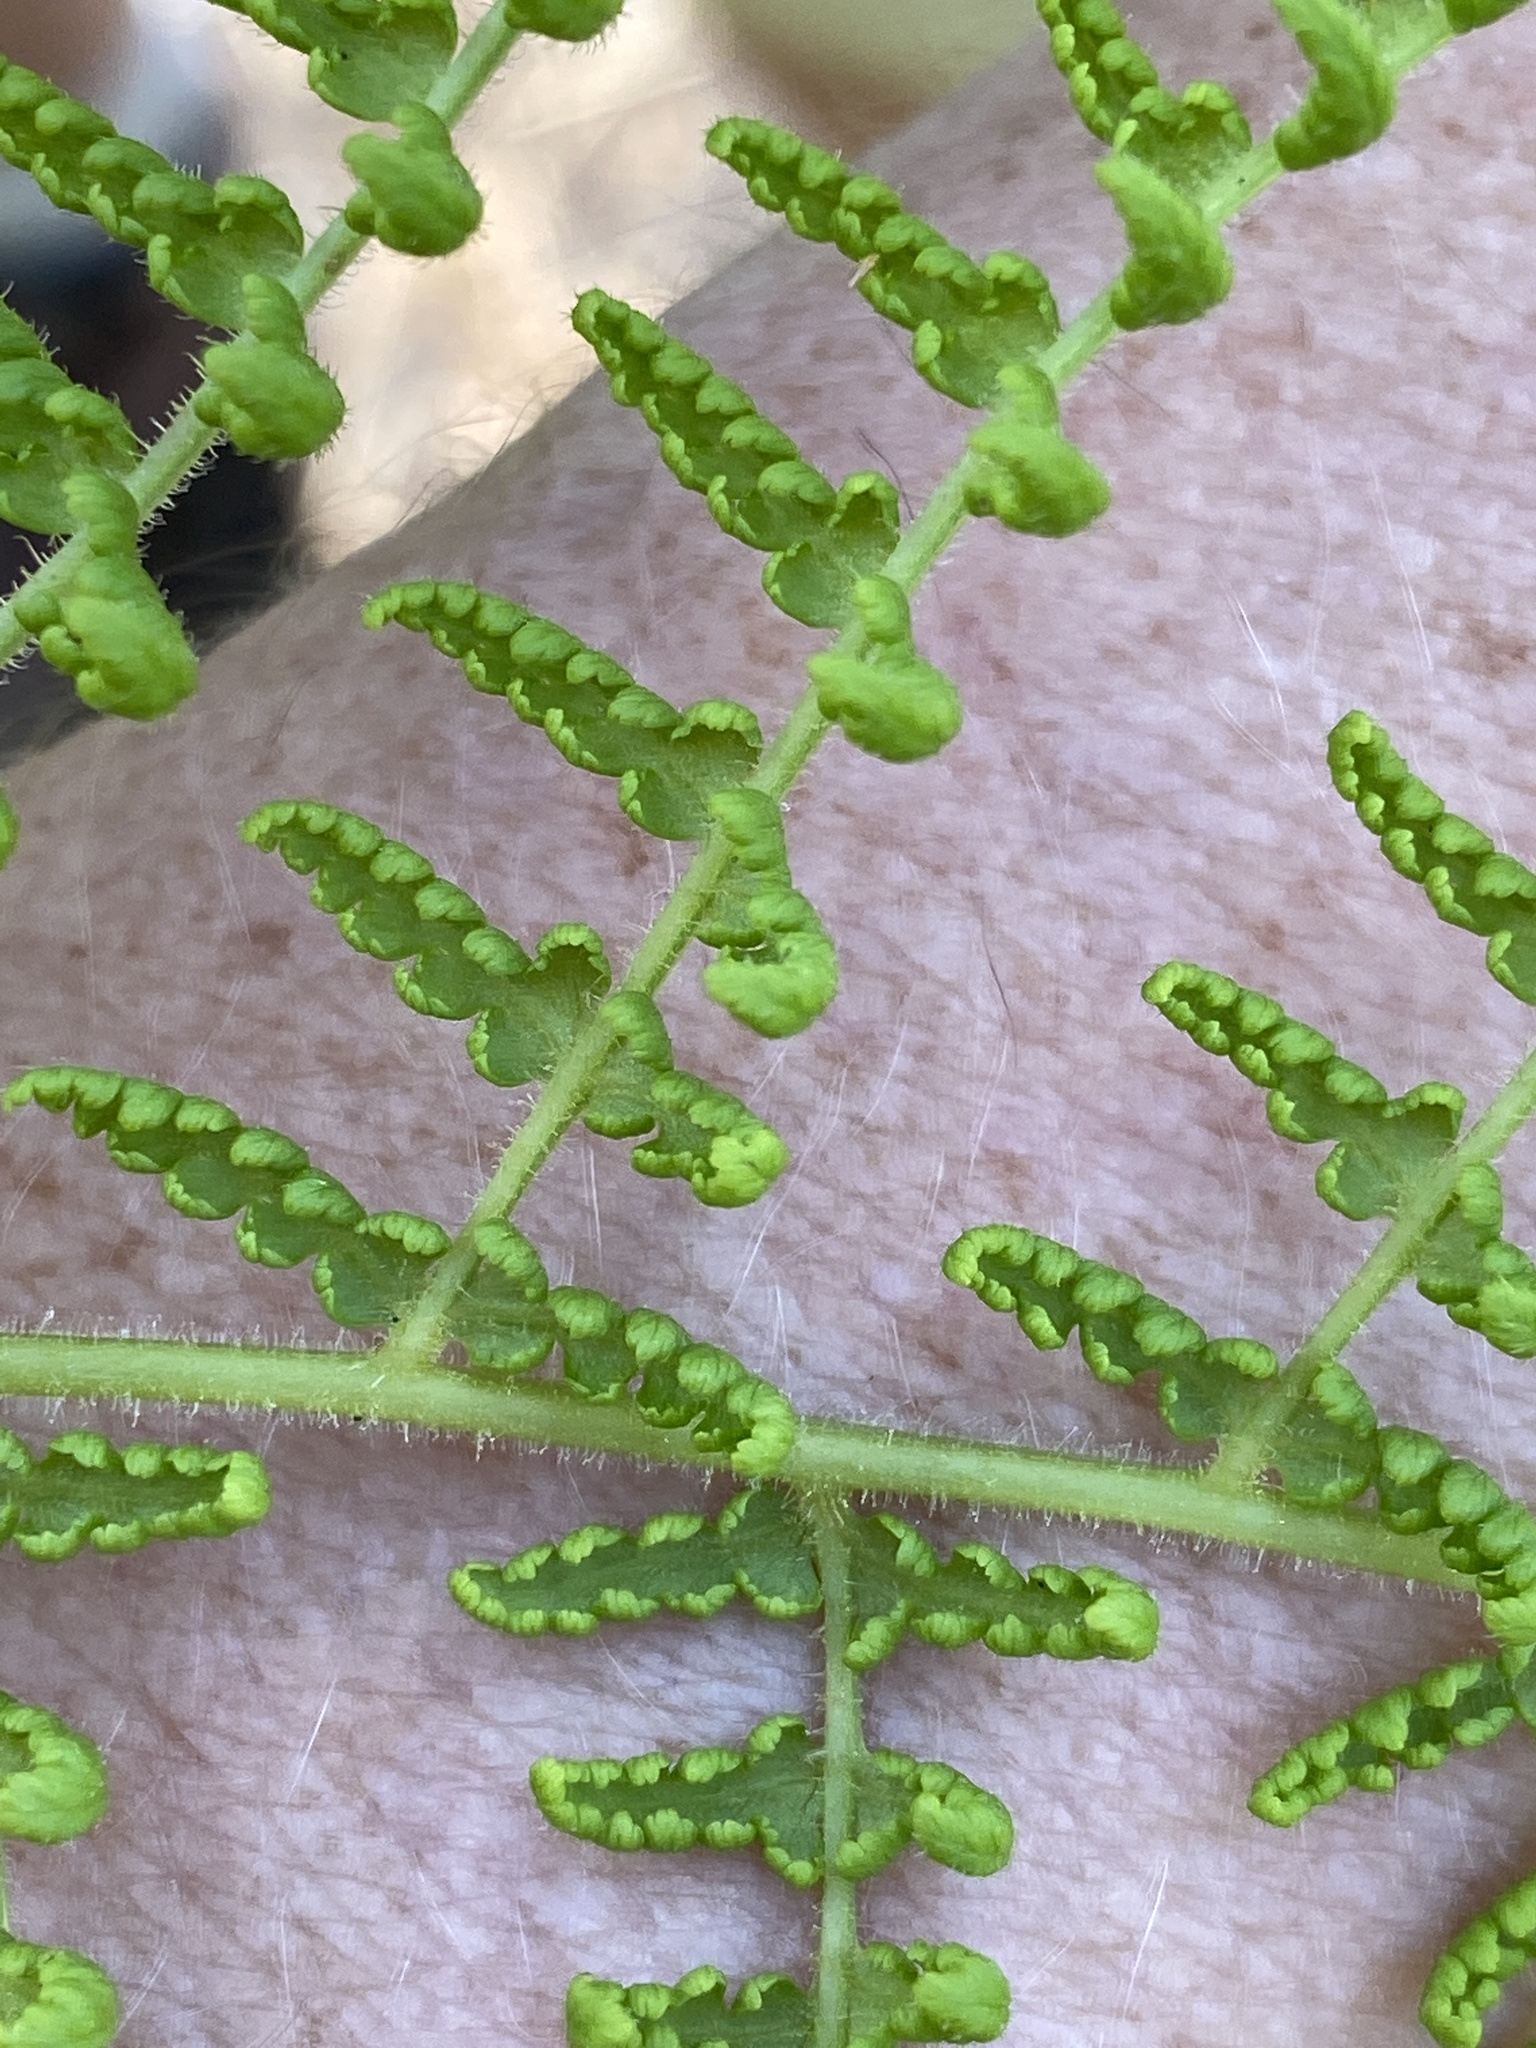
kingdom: Plantae
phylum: Tracheophyta
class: Polypodiopsida
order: Polypodiales
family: Dennstaedtiaceae
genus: Sitobolium
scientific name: Sitobolium punctilobum
